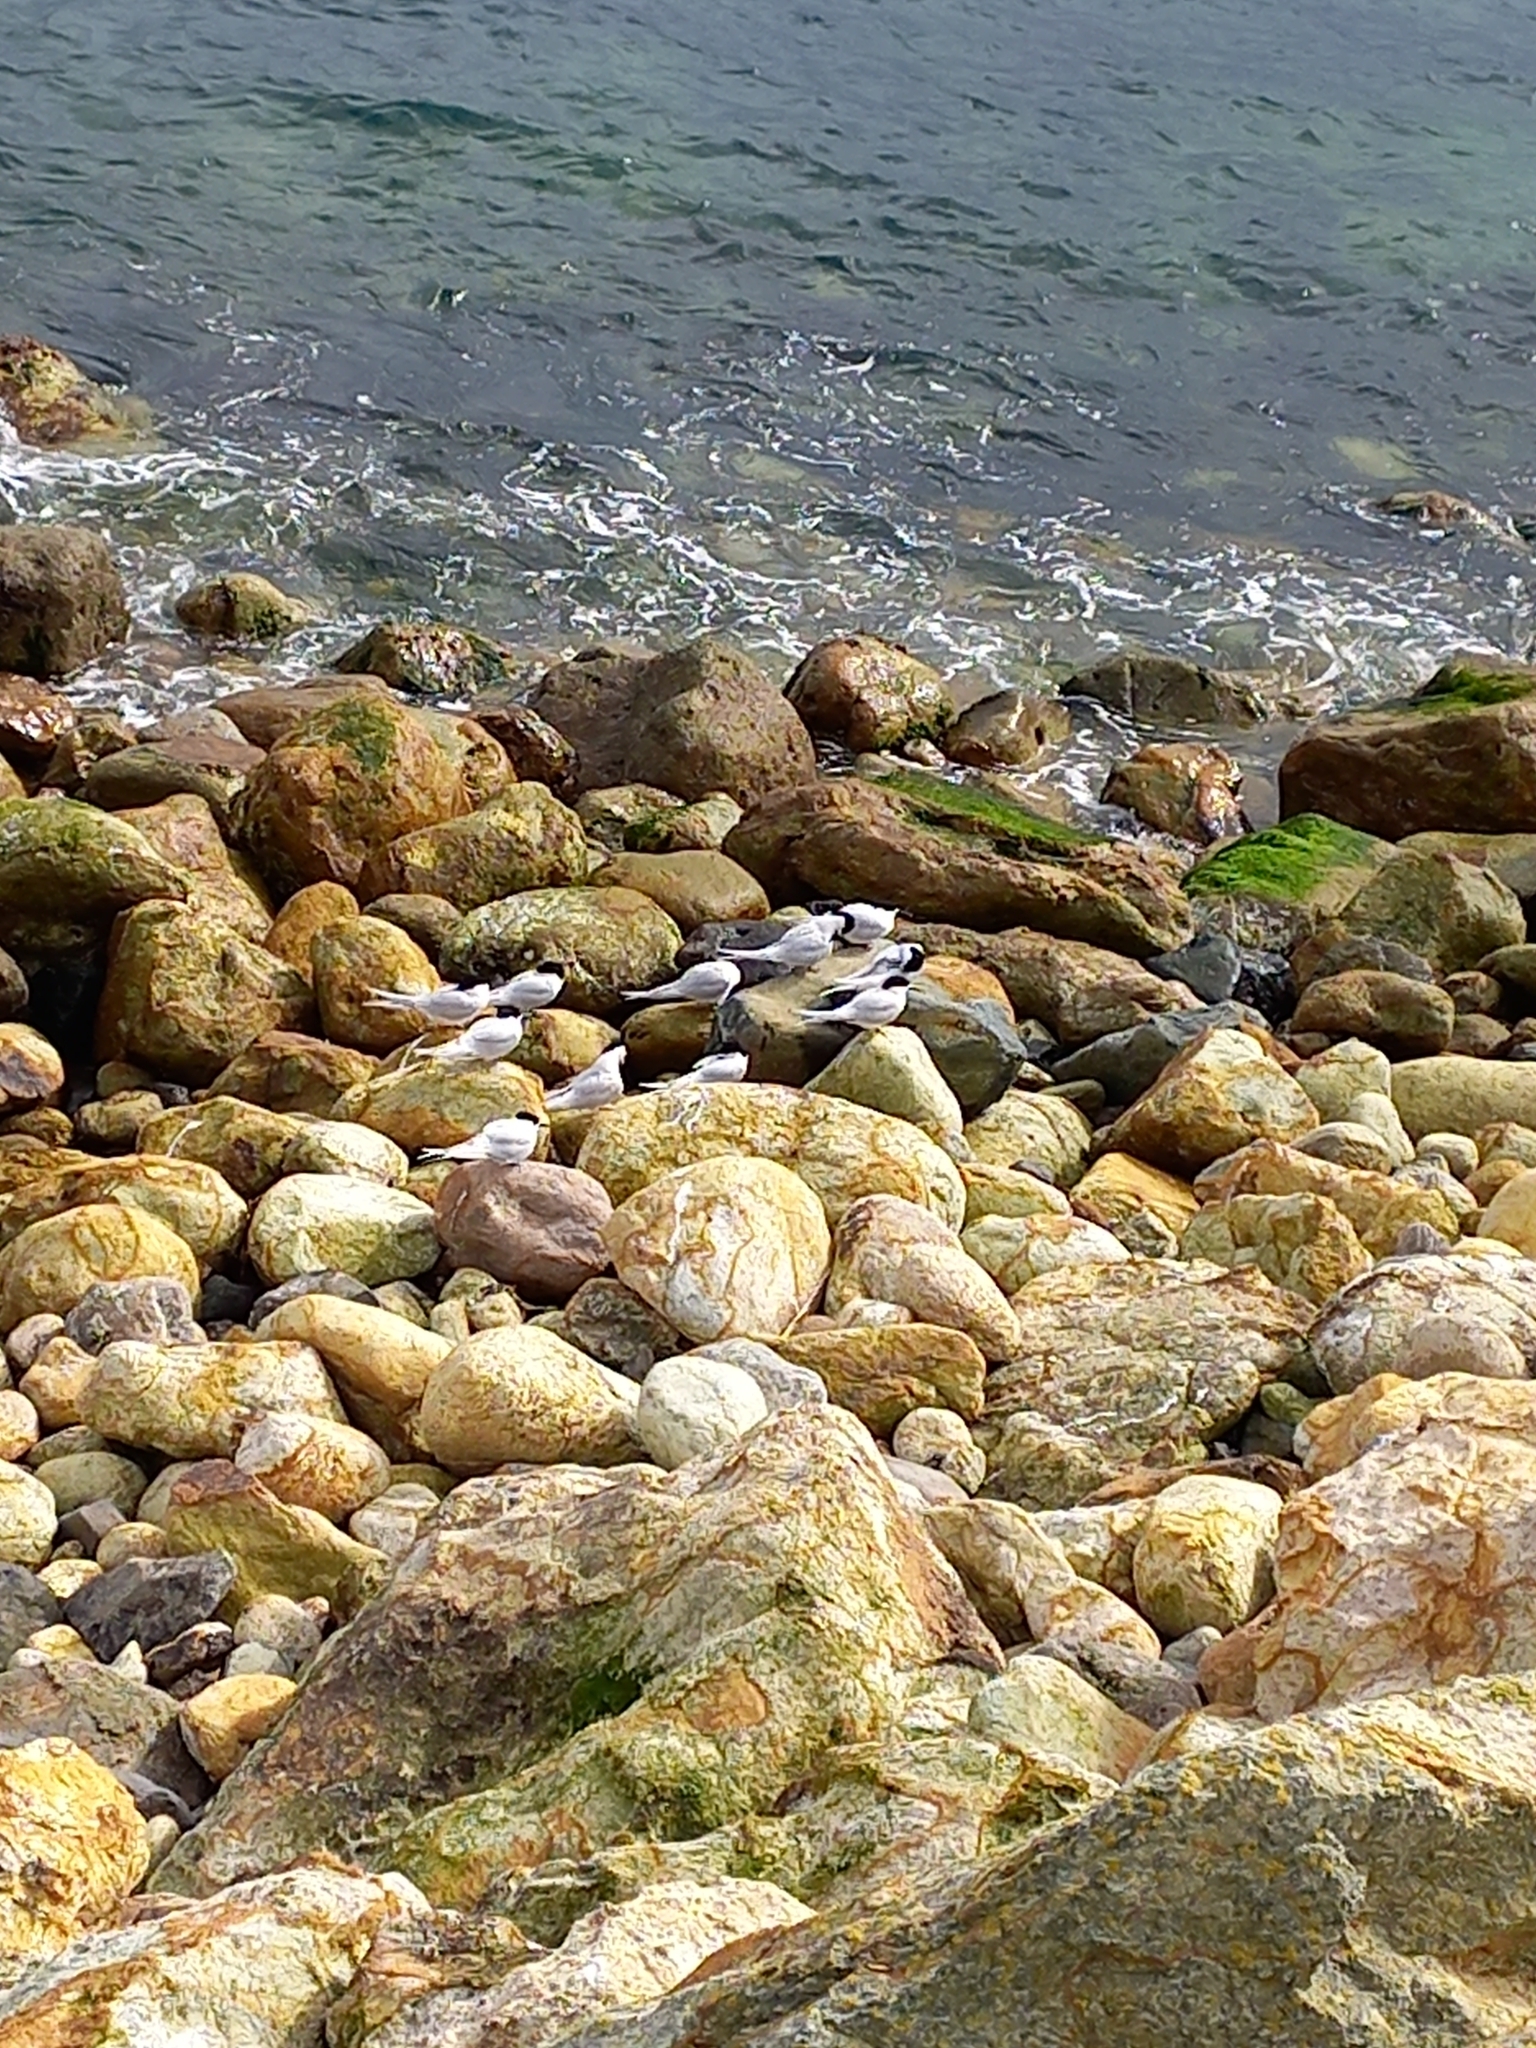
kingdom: Animalia
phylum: Chordata
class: Aves
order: Charadriiformes
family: Laridae
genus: Sterna
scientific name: Sterna striata
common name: White-fronted tern
